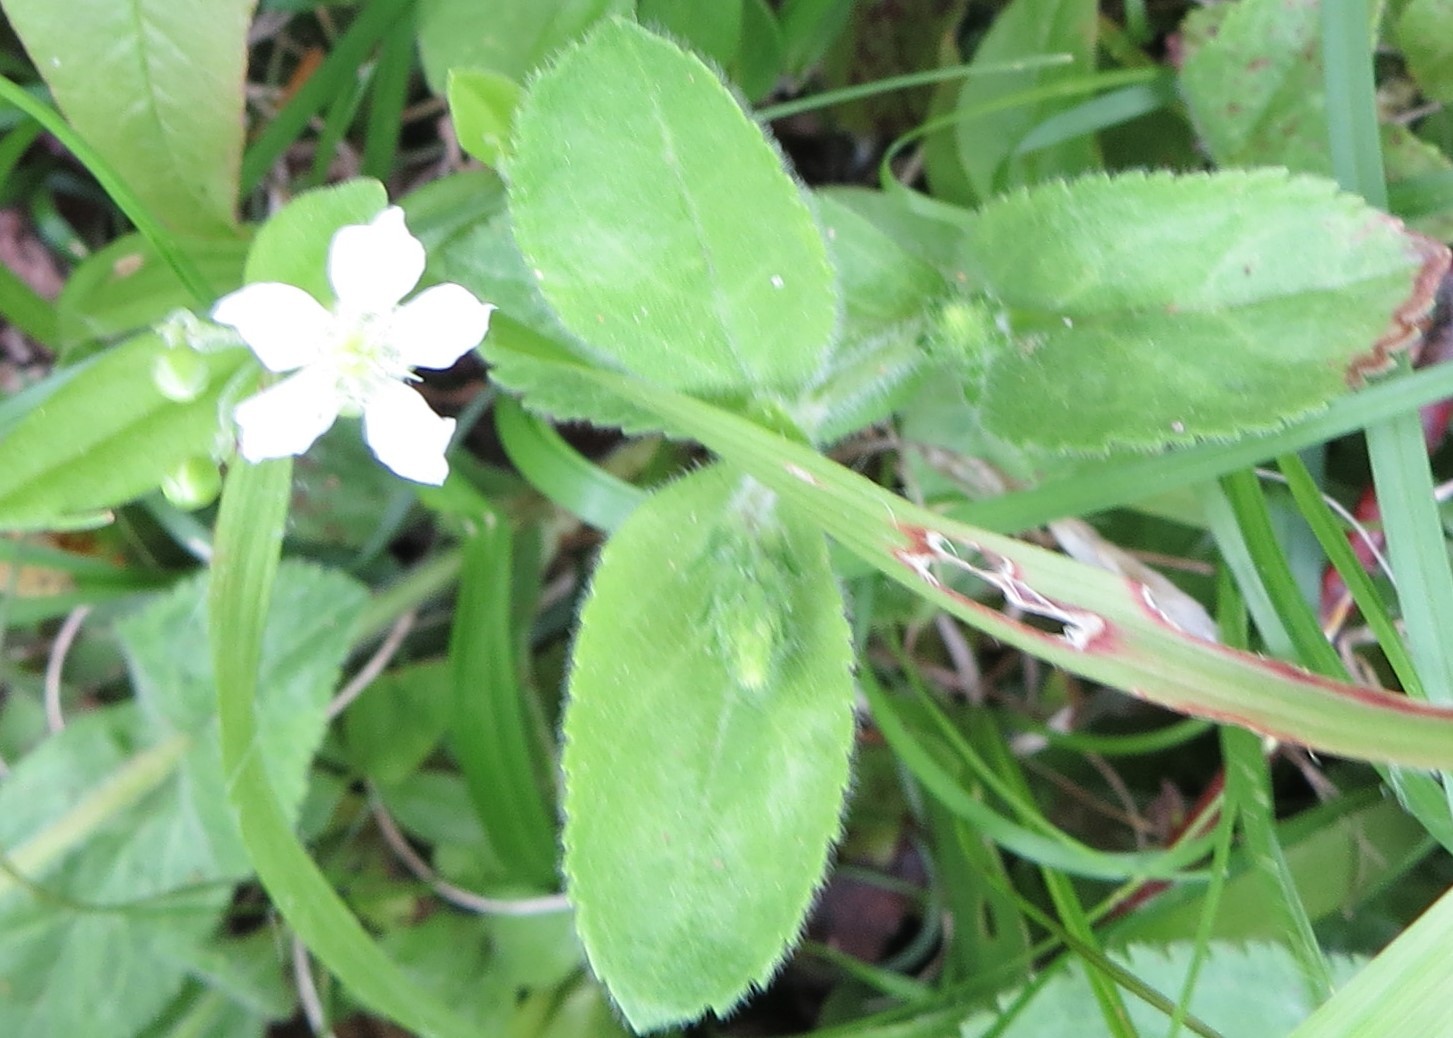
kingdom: Plantae
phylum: Tracheophyta
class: Magnoliopsida
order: Caryophyllales
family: Caryophyllaceae
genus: Moehringia
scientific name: Moehringia lateriflora
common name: Blunt-leaved sandwort
